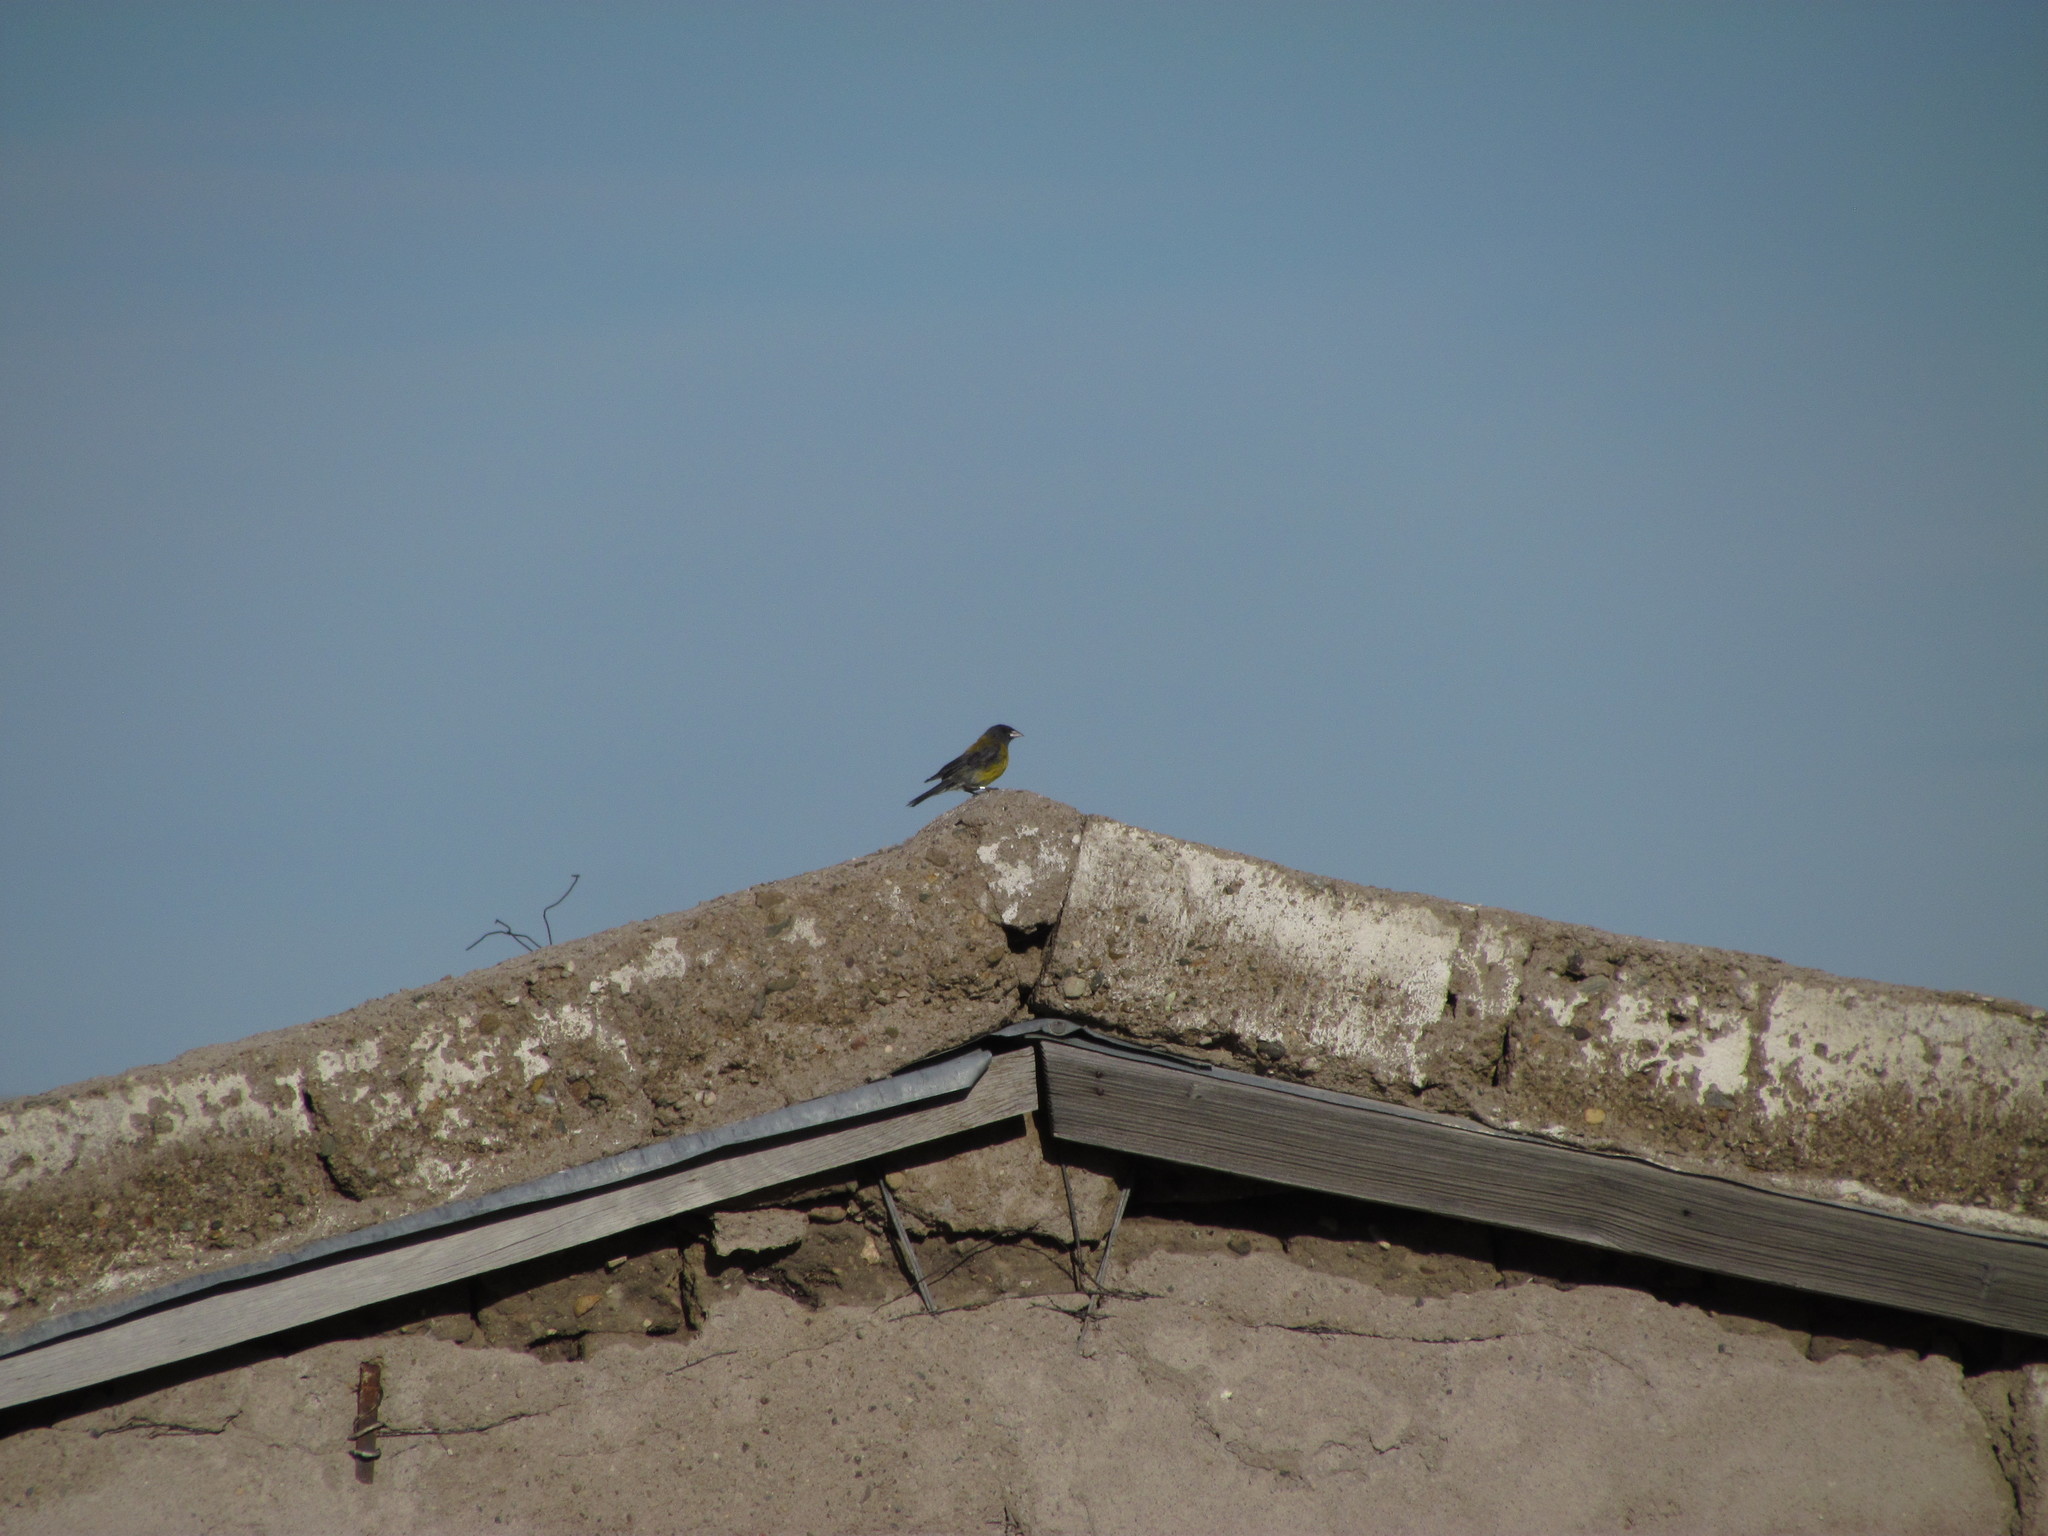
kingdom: Animalia
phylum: Chordata
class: Aves
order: Passeriformes
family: Thraupidae
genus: Phrygilus
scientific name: Phrygilus gayi
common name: Grey-hooded sierra finch
